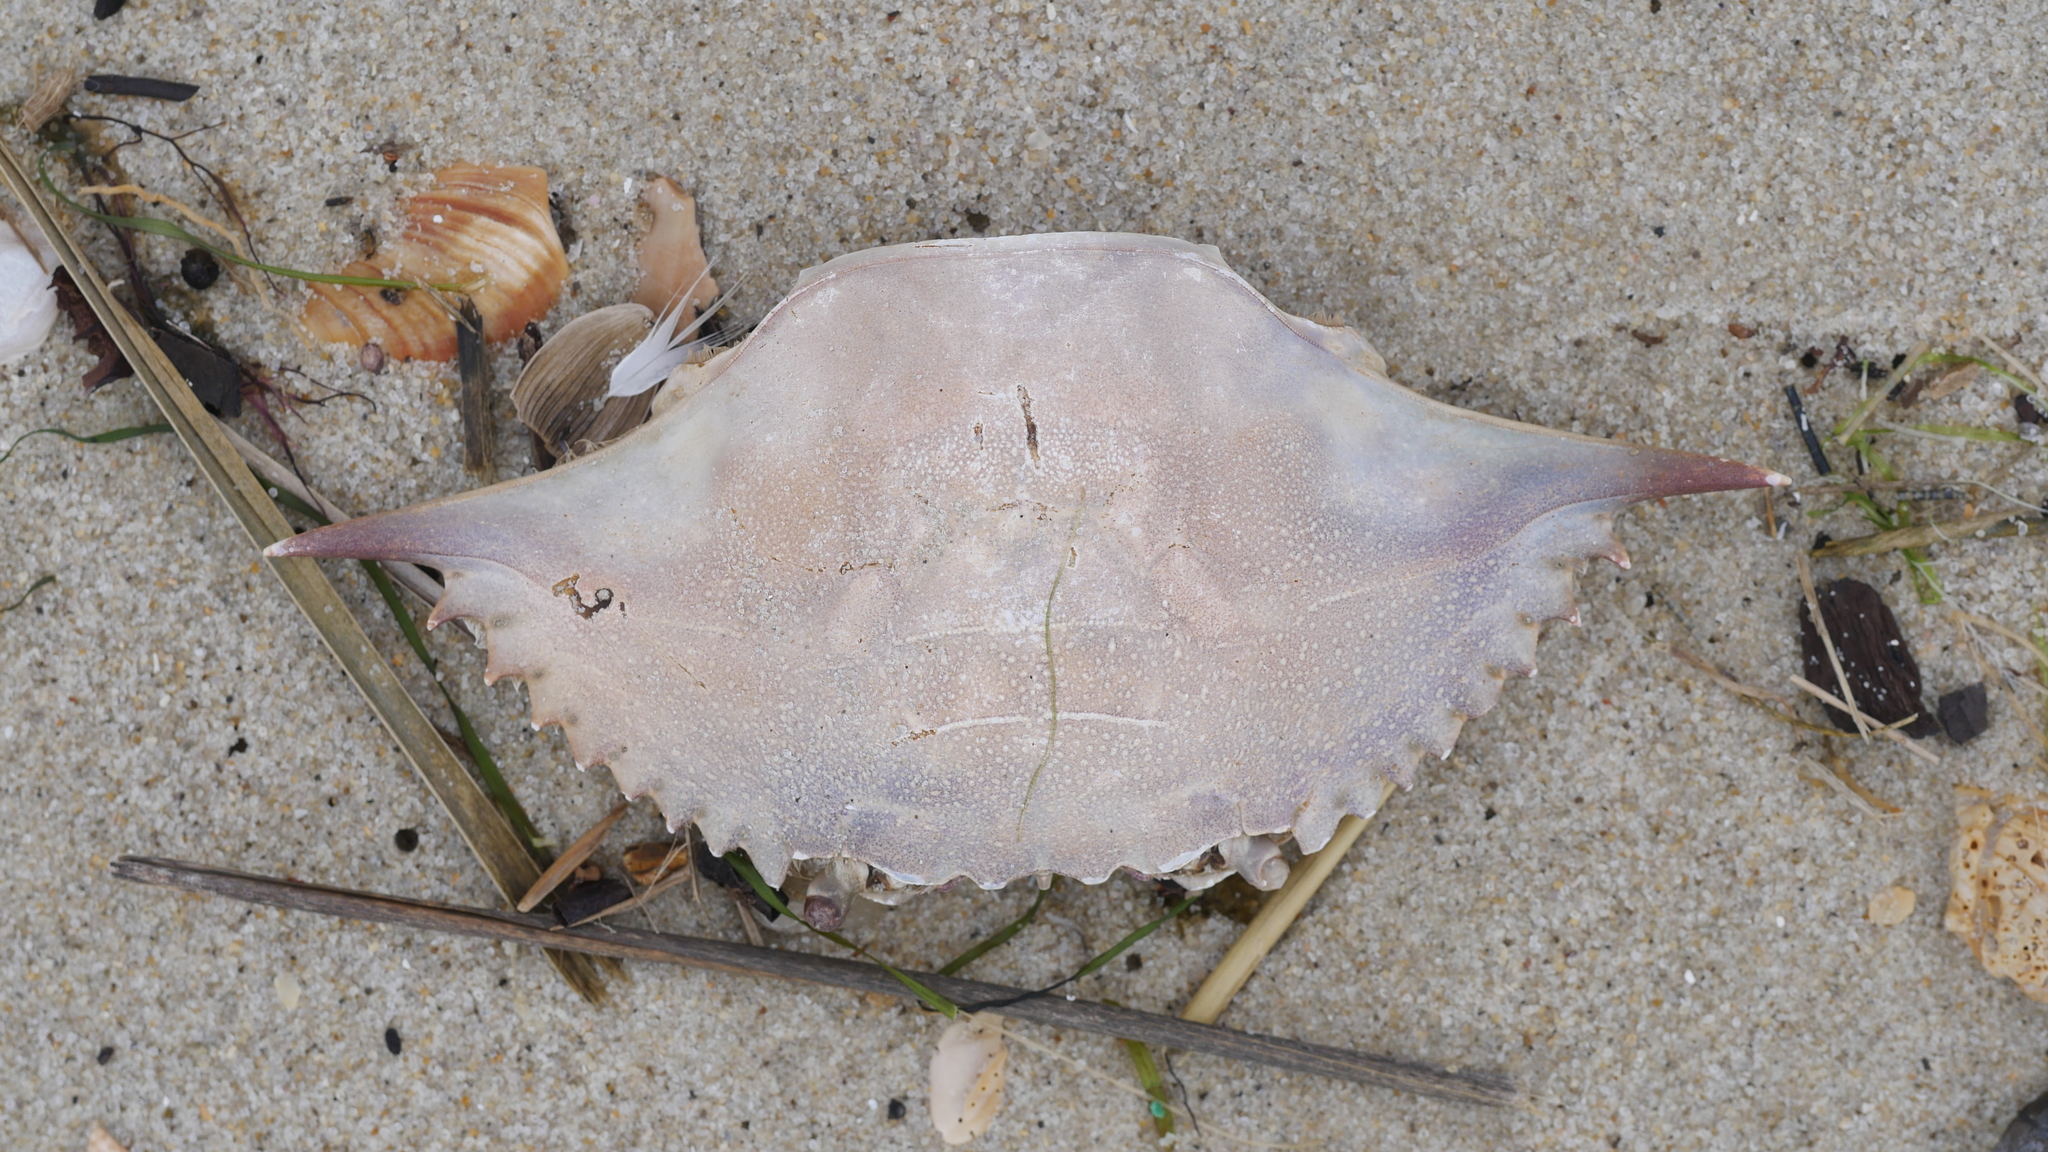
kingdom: Animalia
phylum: Arthropoda
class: Malacostraca
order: Decapoda
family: Portunidae
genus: Callinectes
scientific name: Callinectes sapidus
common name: Blue crab
